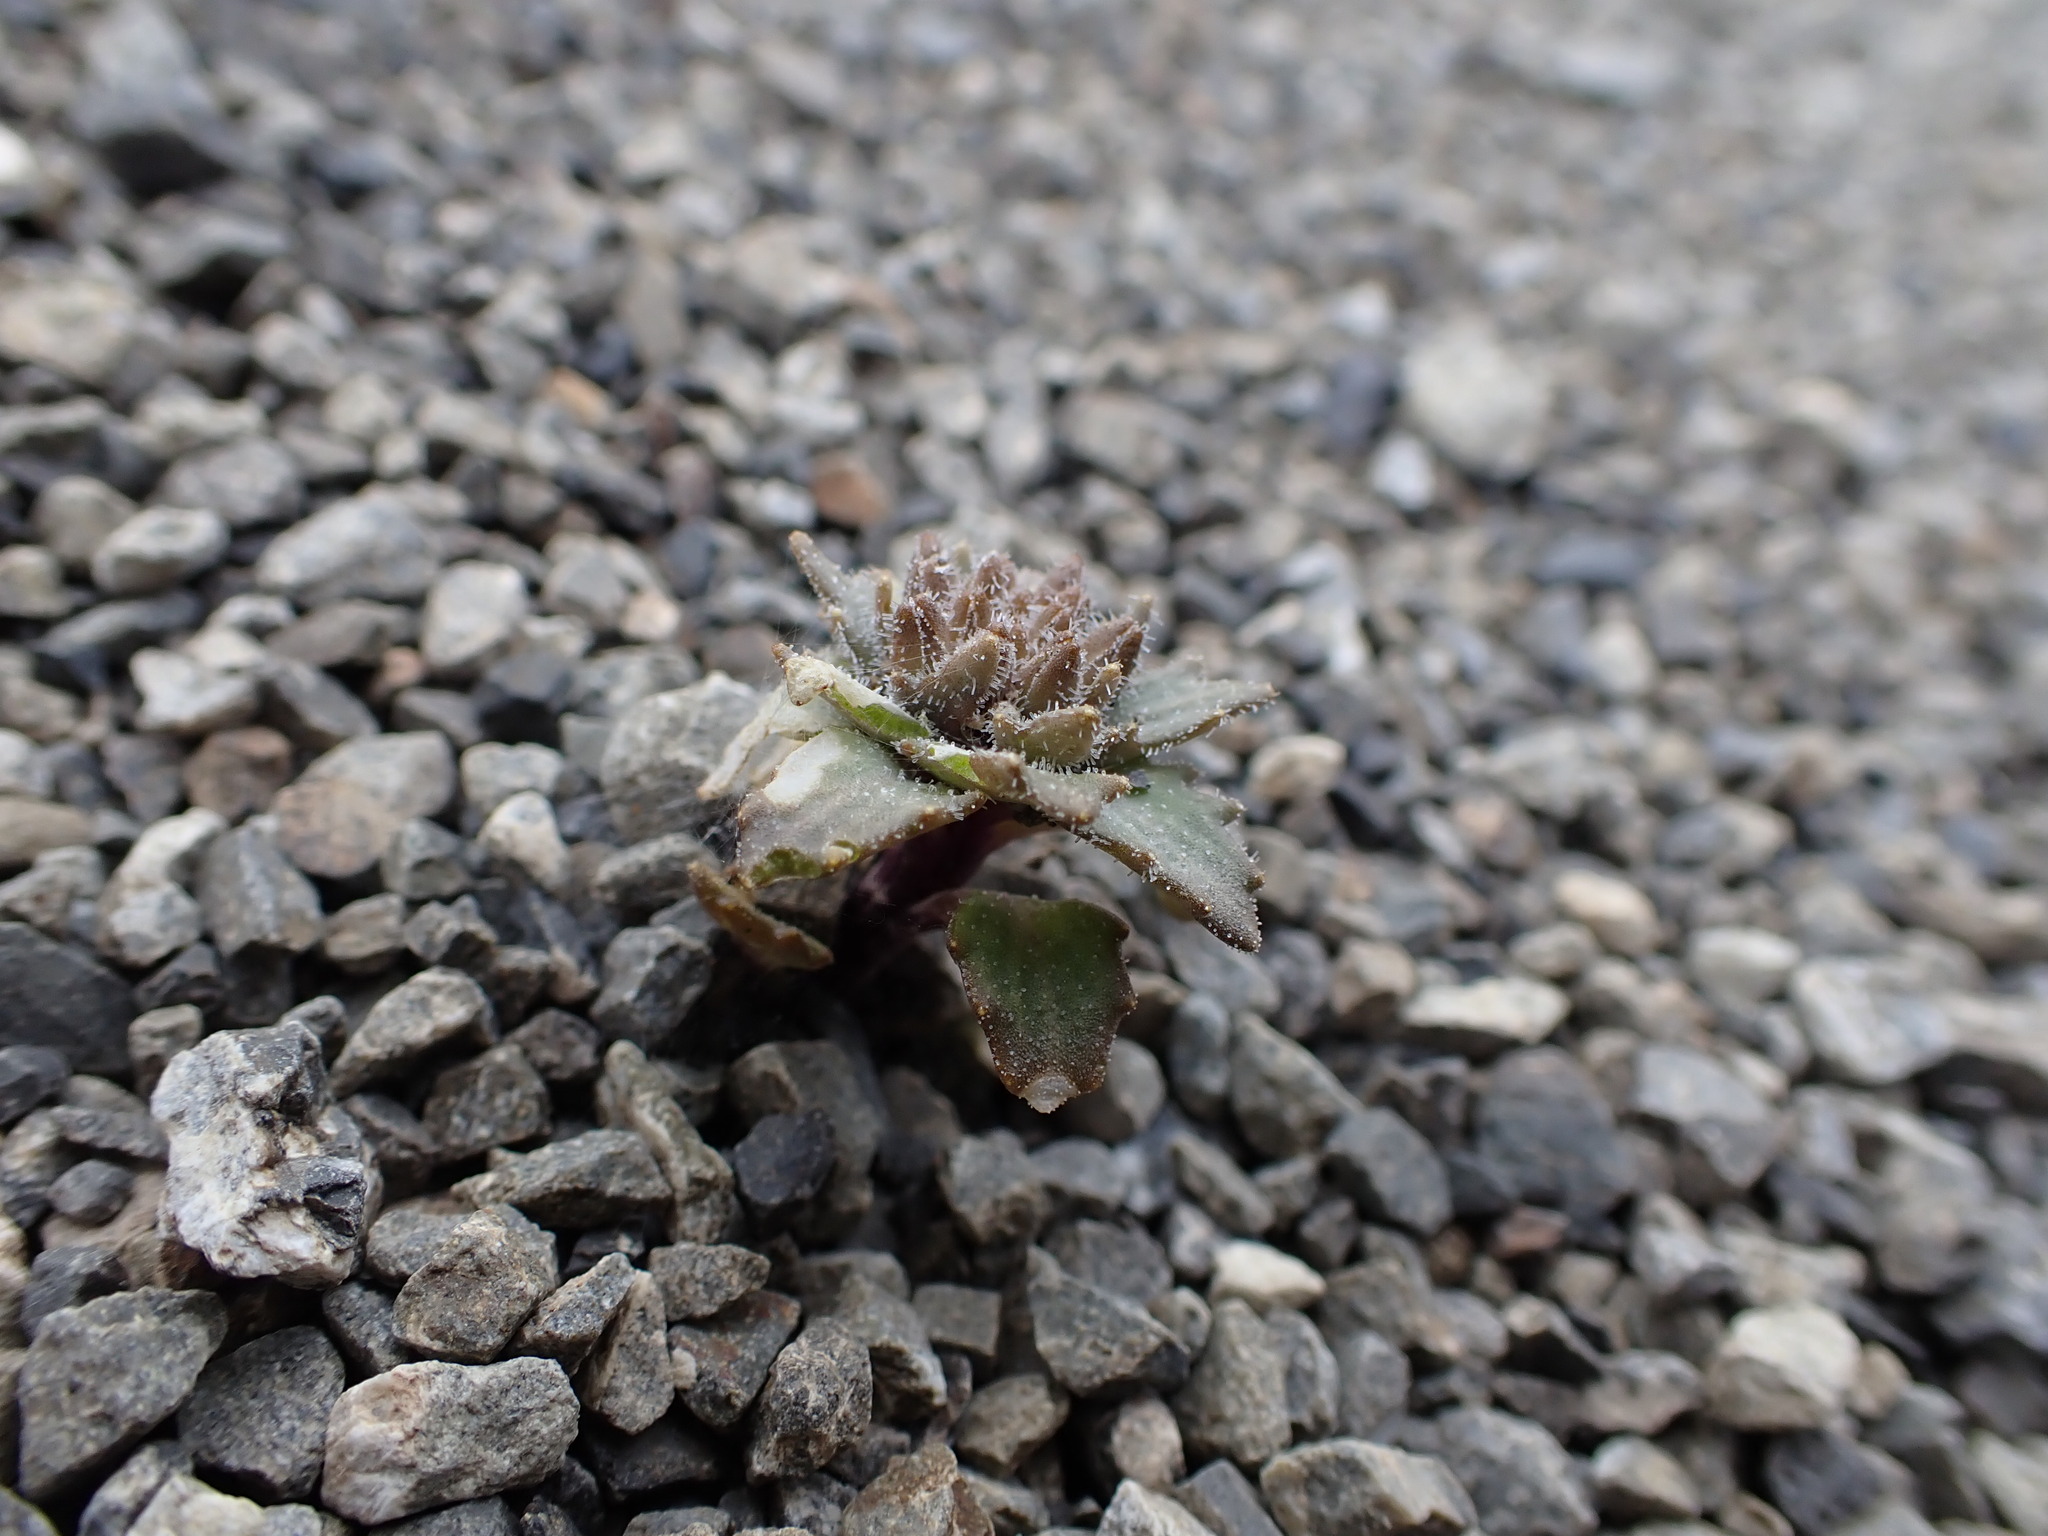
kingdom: Plantae
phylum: Tracheophyta
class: Magnoliopsida
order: Brassicales
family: Brassicaceae
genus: Notothlaspi
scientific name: Notothlaspi rosulatum
